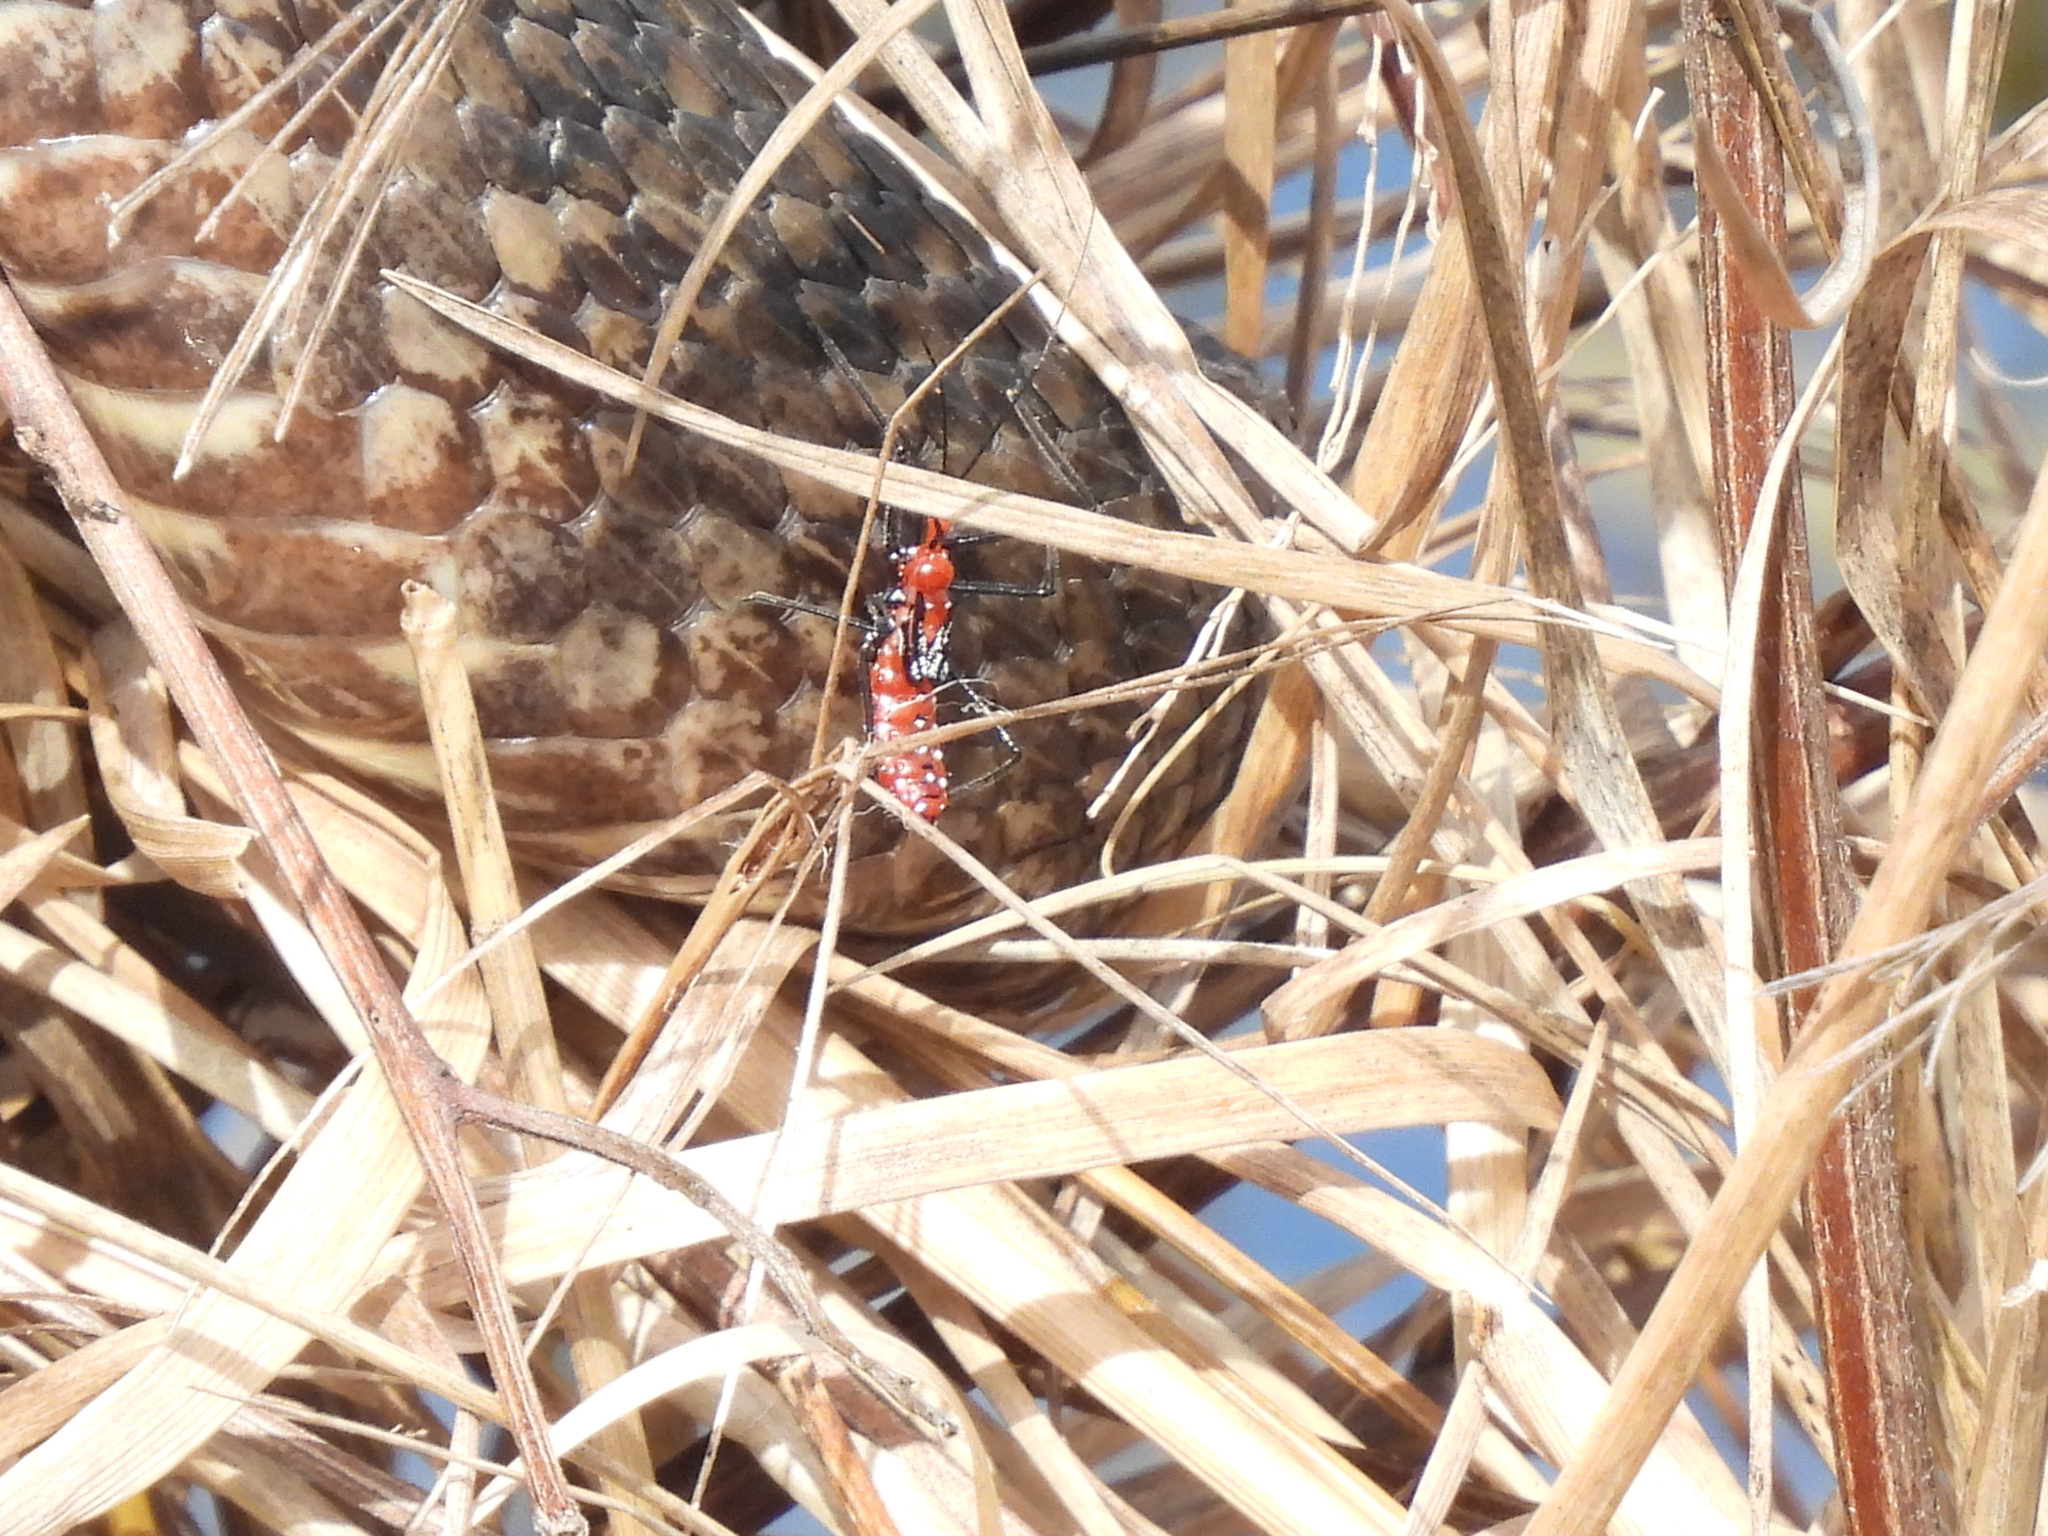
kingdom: Animalia
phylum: Arthropoda
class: Insecta
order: Hemiptera
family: Reduviidae
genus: Zelus
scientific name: Zelus longipes
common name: Milkweed assassin bug
